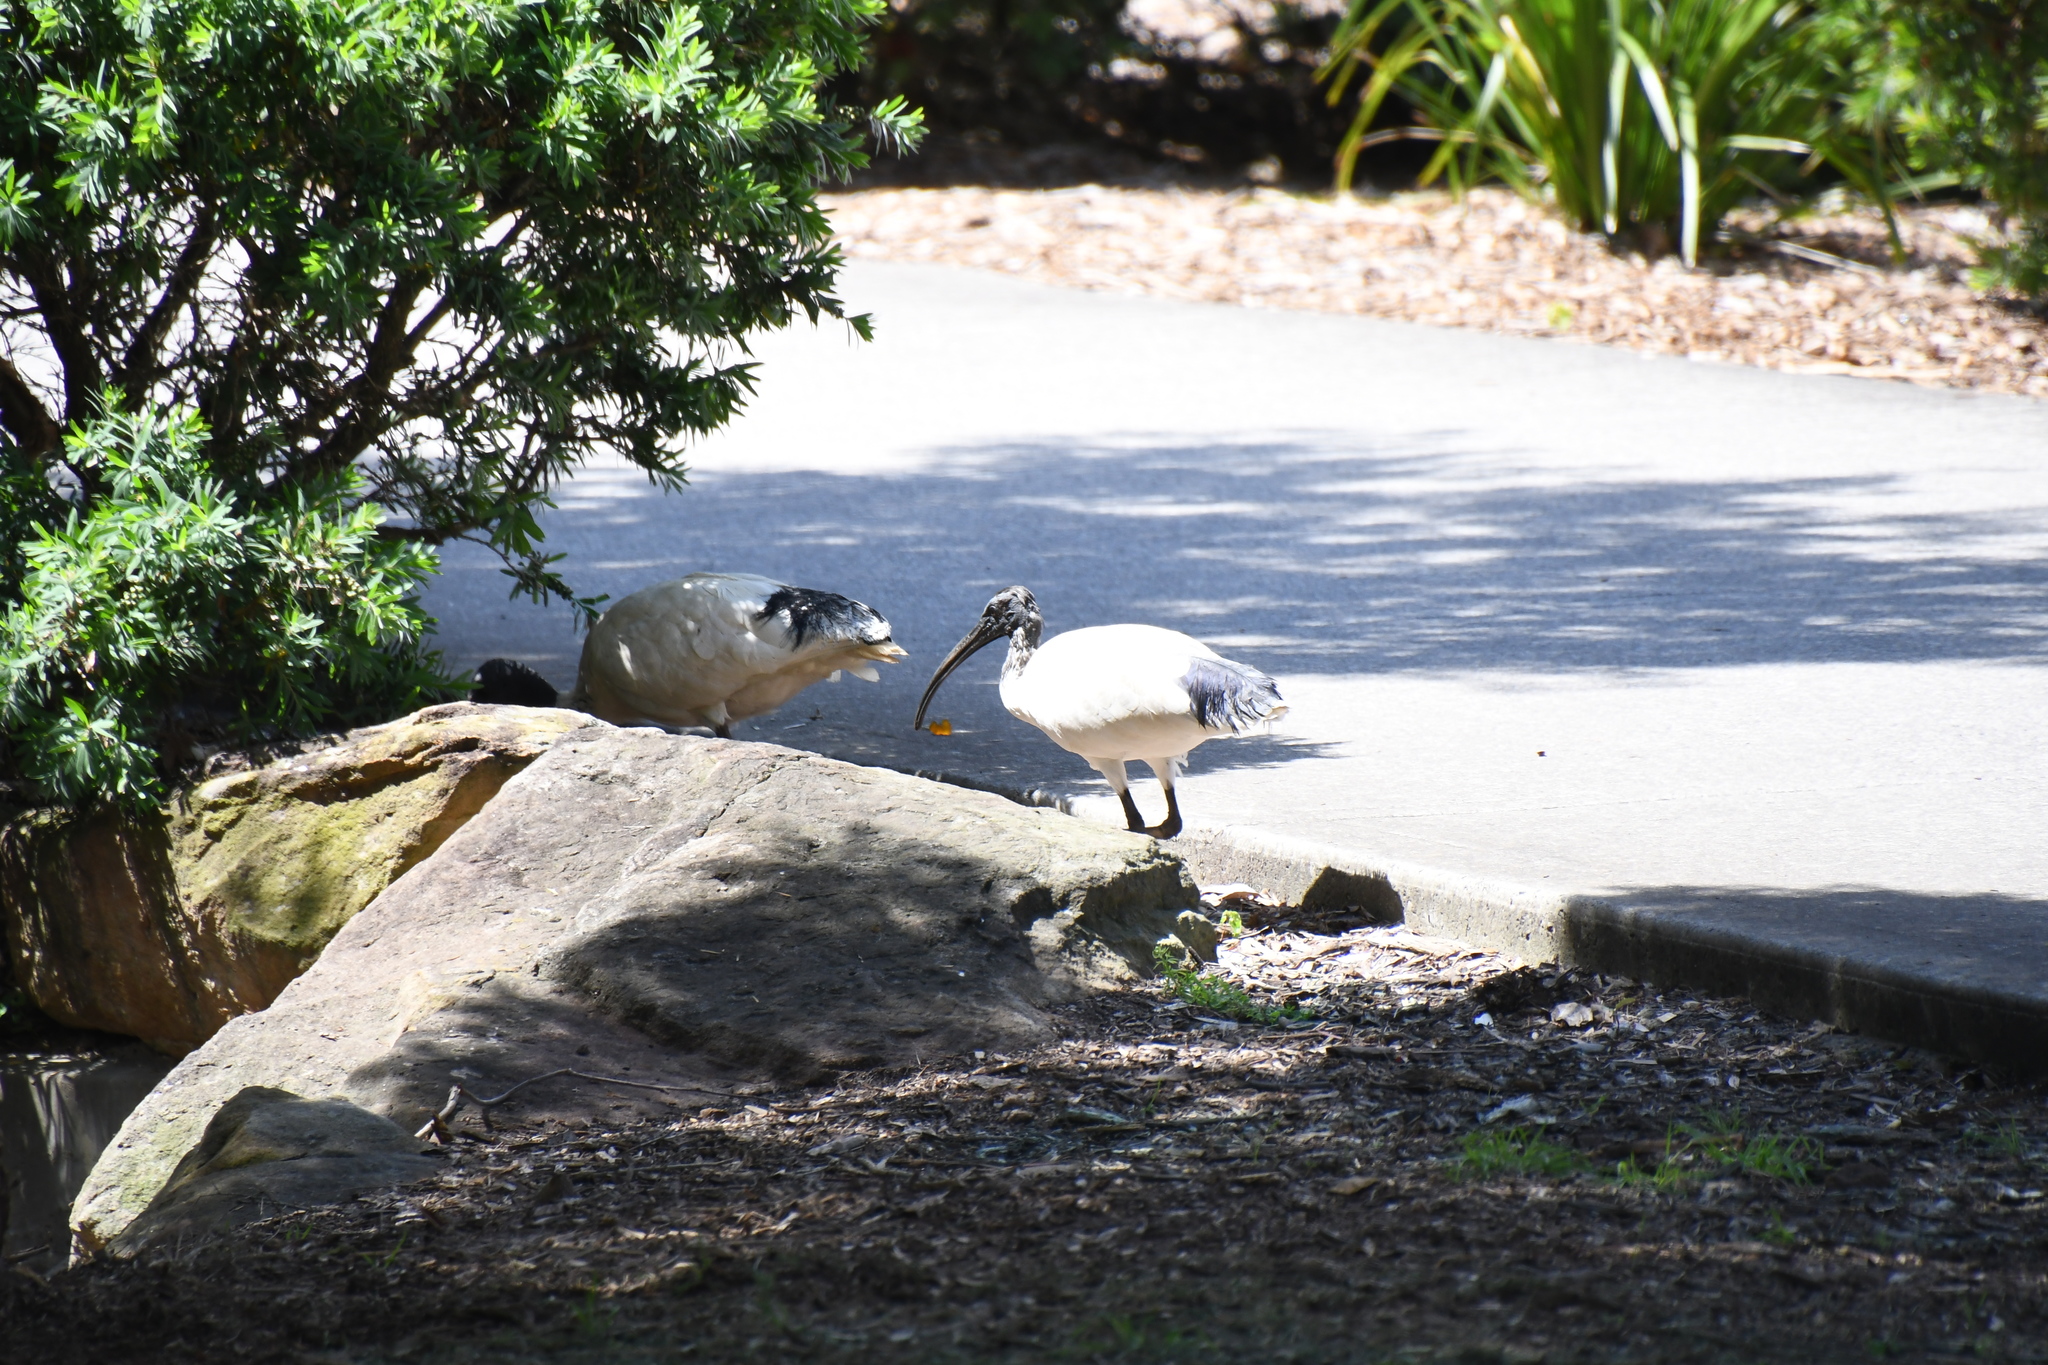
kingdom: Animalia
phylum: Chordata
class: Aves
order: Pelecaniformes
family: Threskiornithidae
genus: Threskiornis
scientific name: Threskiornis molucca
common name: Australian white ibis
